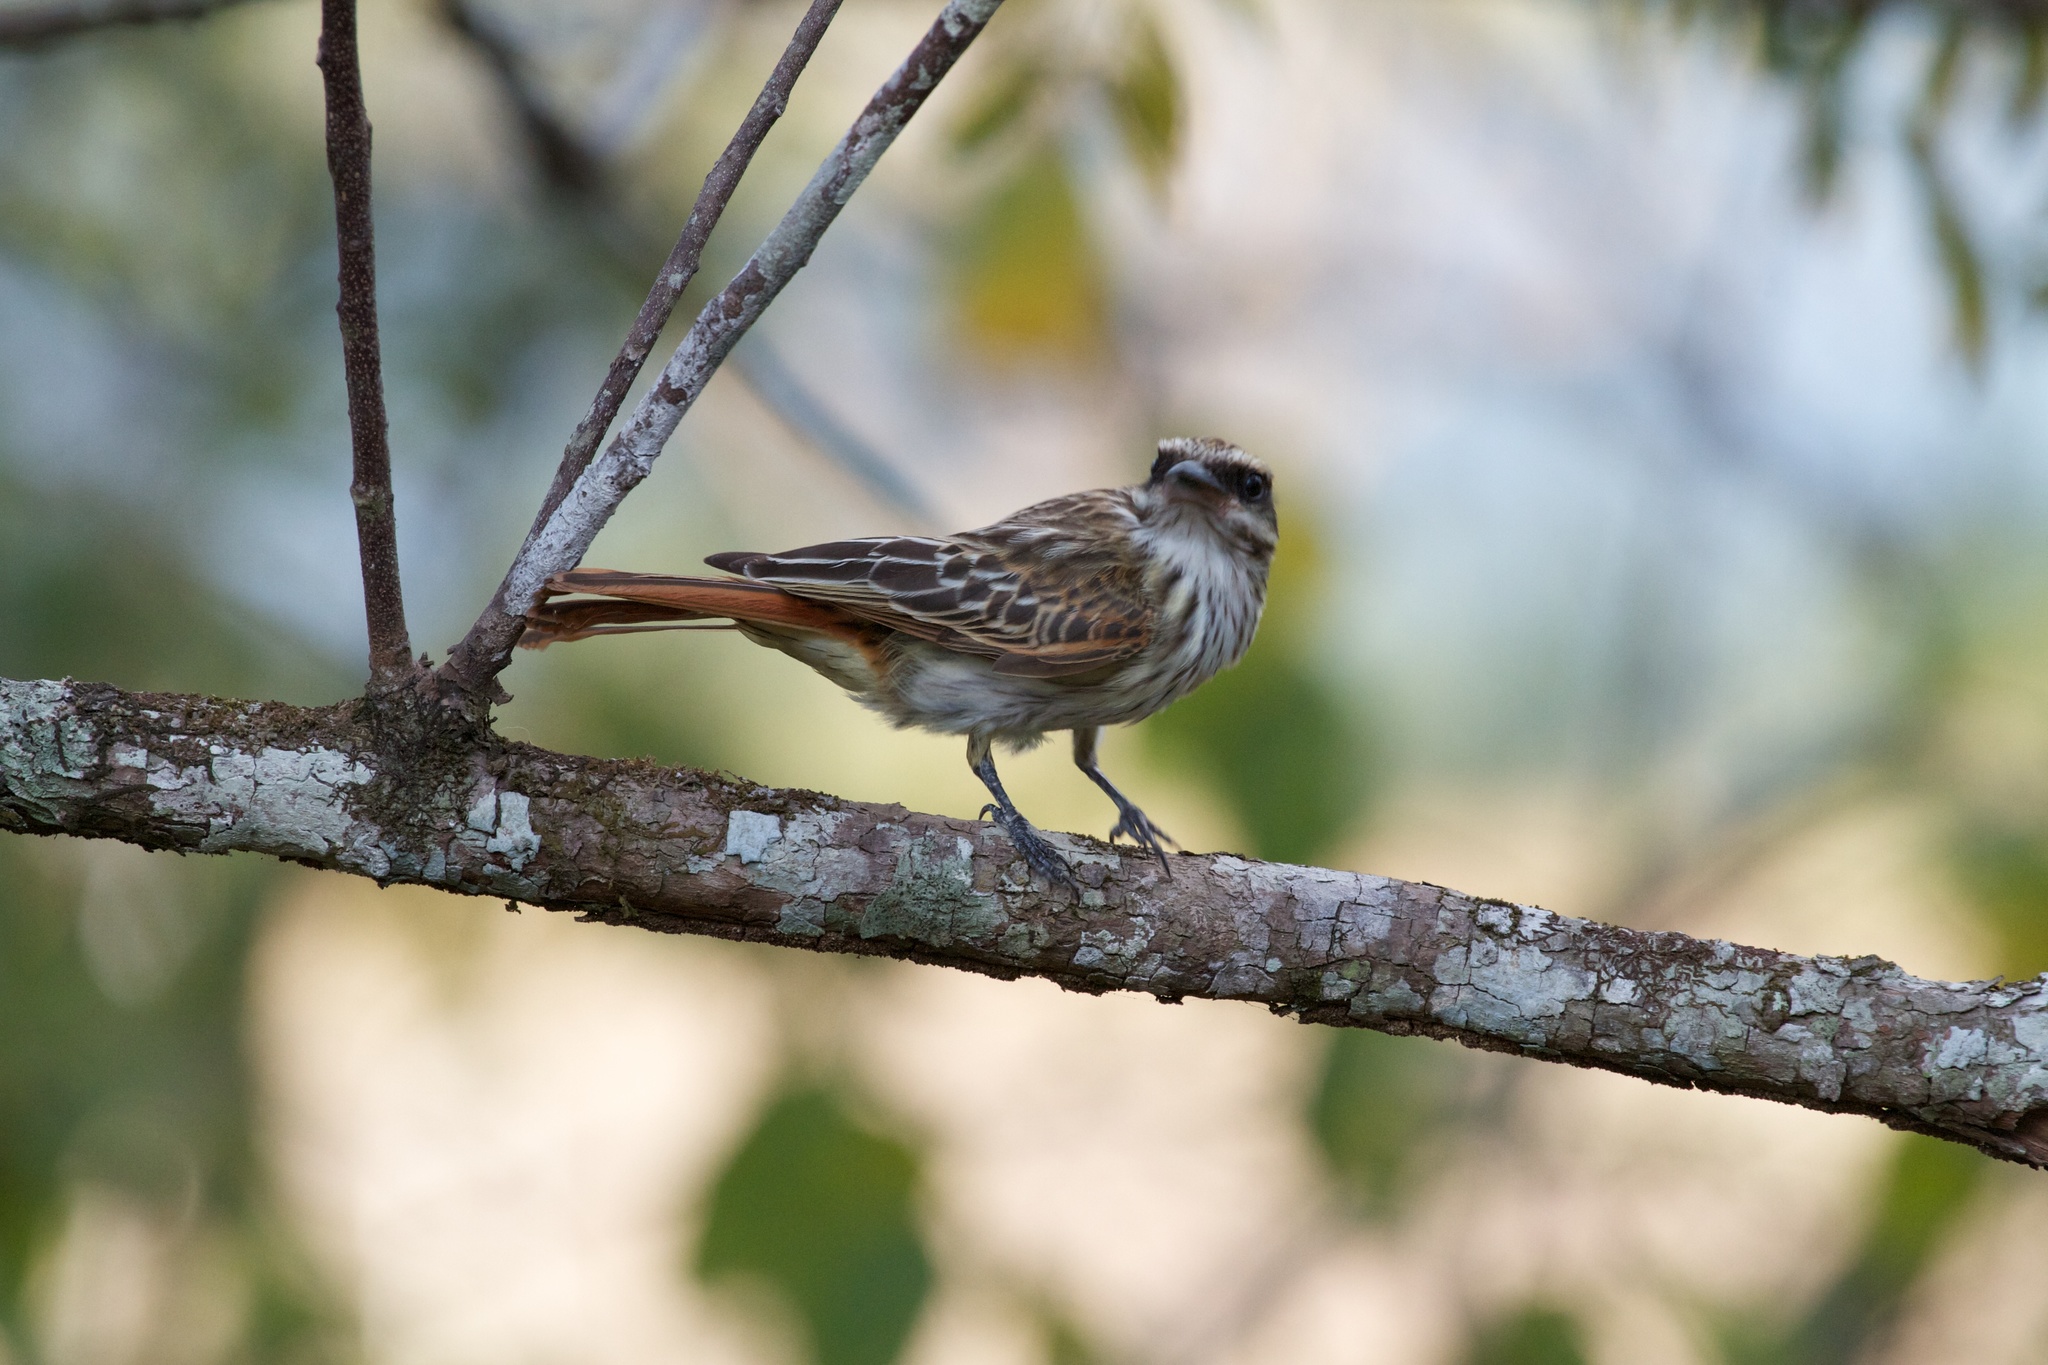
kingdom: Animalia
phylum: Chordata
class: Aves
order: Passeriformes
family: Tyrannidae
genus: Myiodynastes
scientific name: Myiodynastes maculatus
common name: Streaked flycatcher
